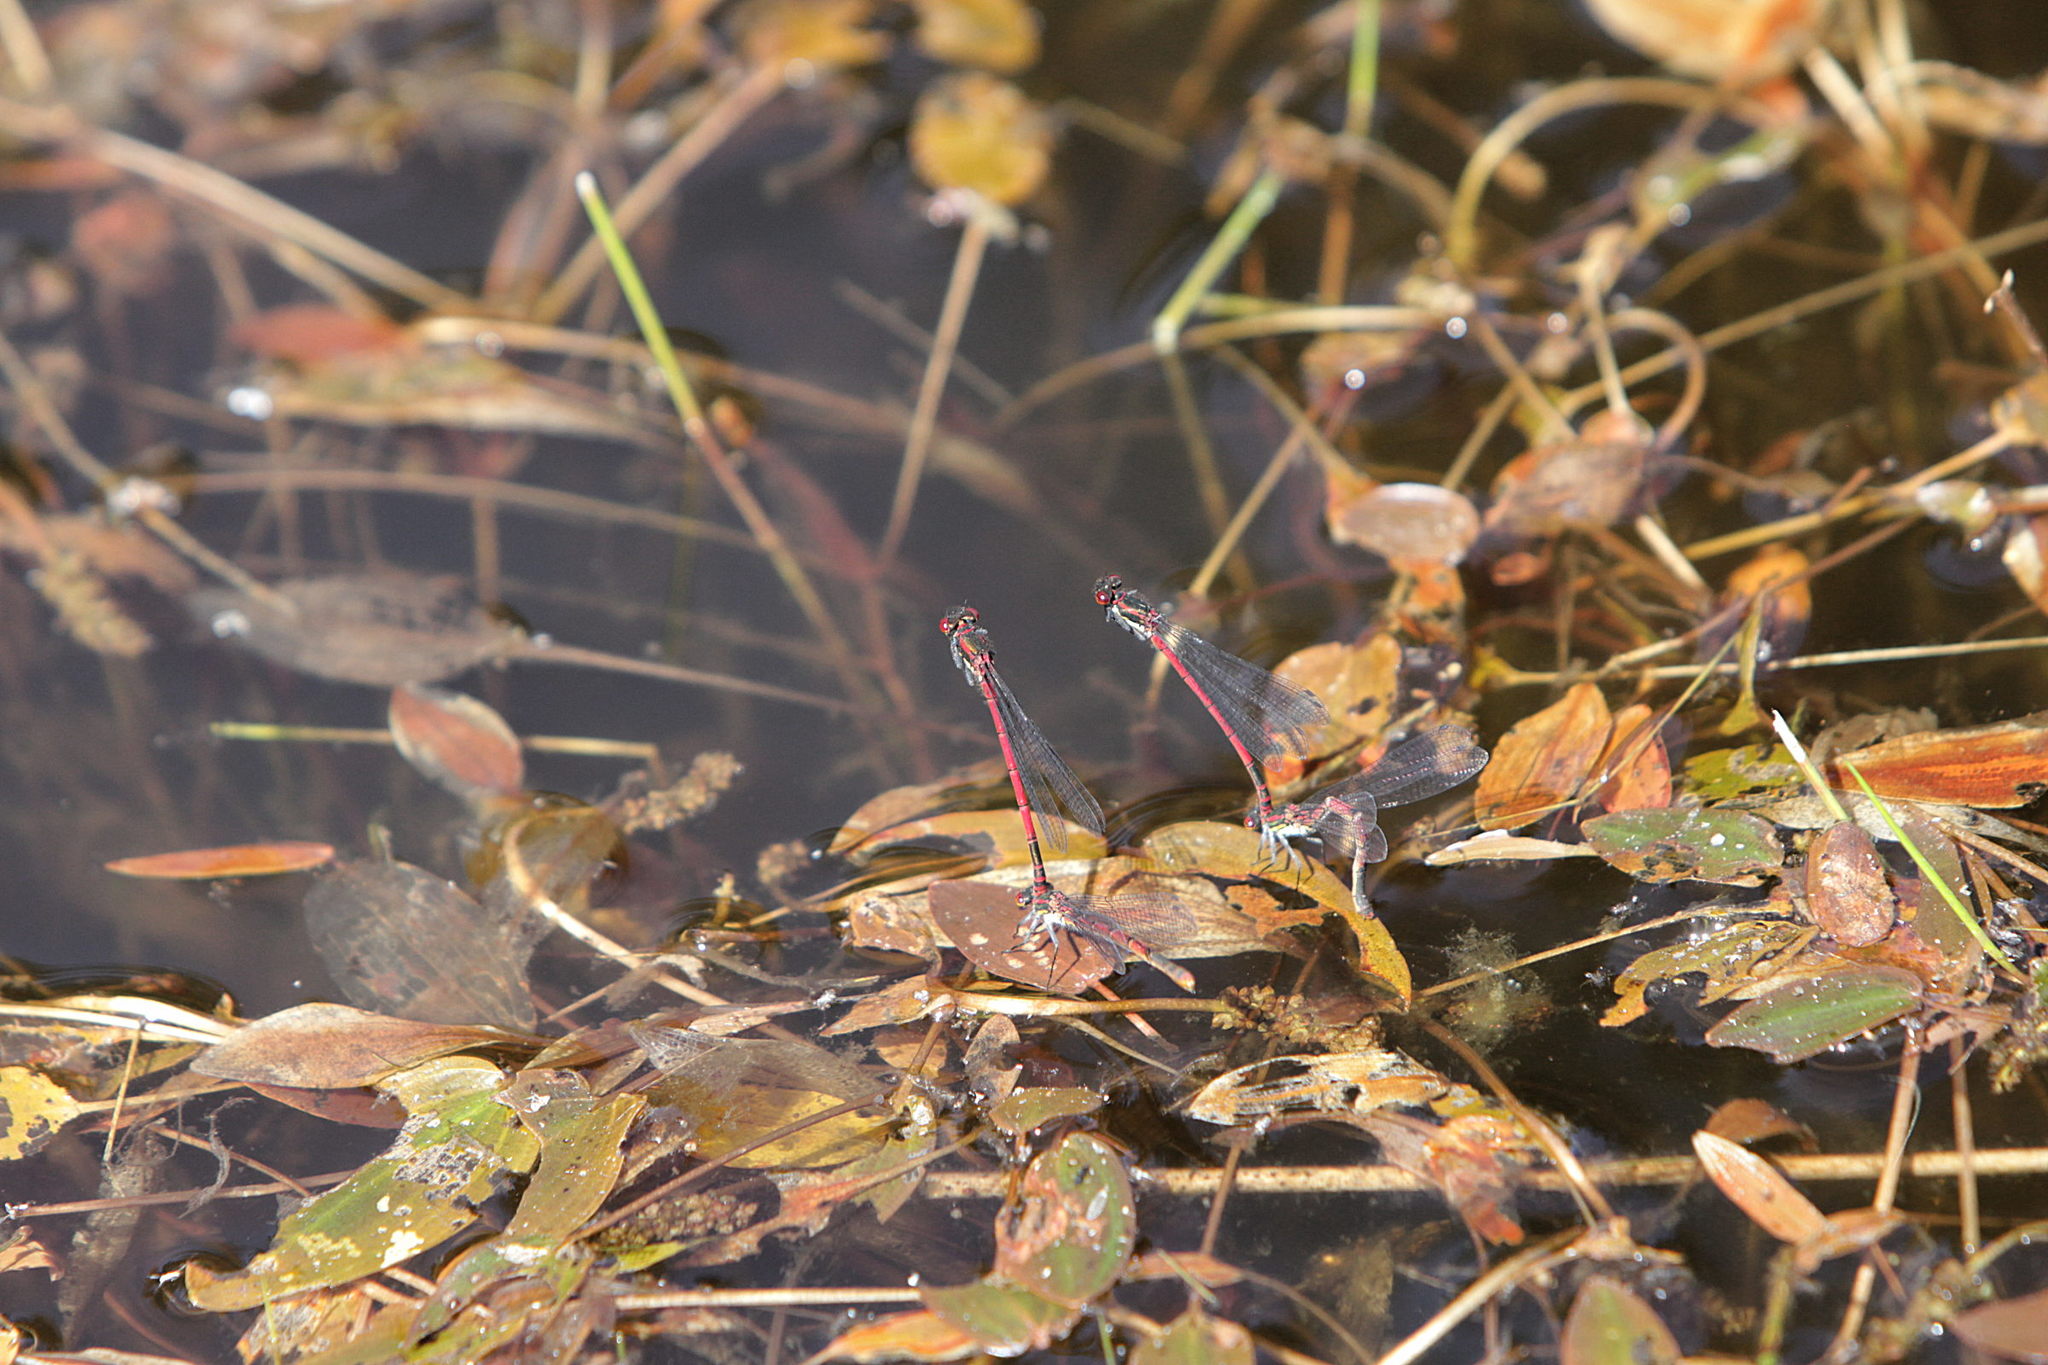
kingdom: Animalia
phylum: Arthropoda
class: Insecta
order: Odonata
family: Coenagrionidae
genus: Pyrrhosoma
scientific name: Pyrrhosoma nymphula
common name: Large red damsel
